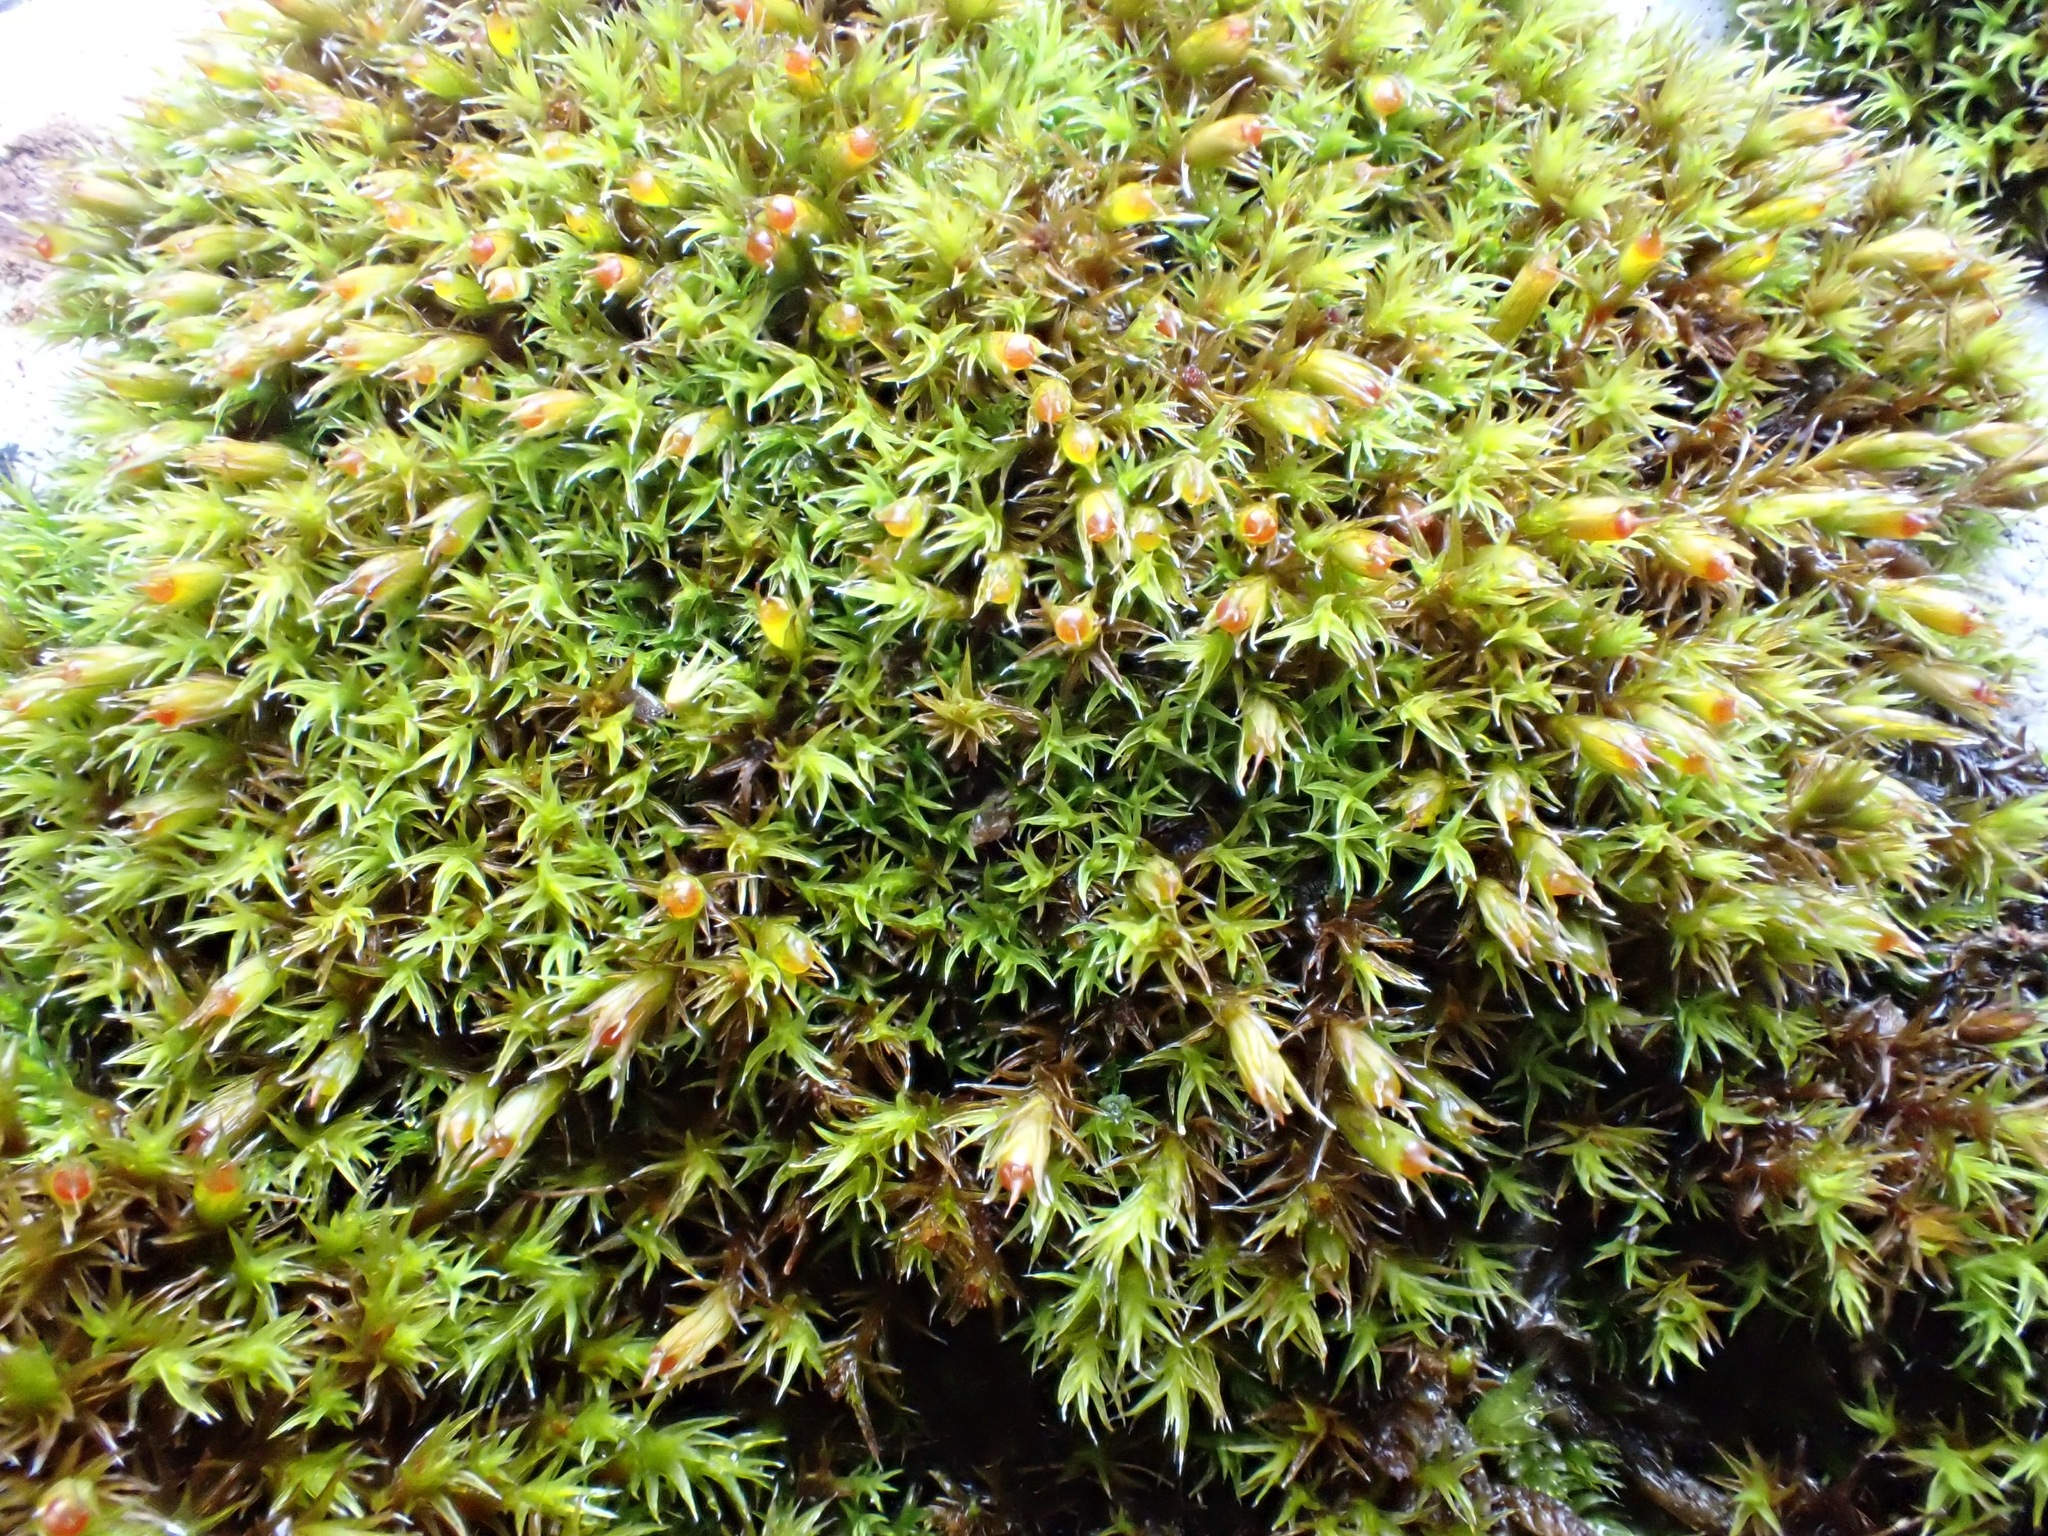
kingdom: Plantae
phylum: Bryophyta
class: Bryopsida
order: Grimmiales
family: Grimmiaceae
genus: Schistidium
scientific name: Schistidium crassipilum
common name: Thickpoint bloom moss
